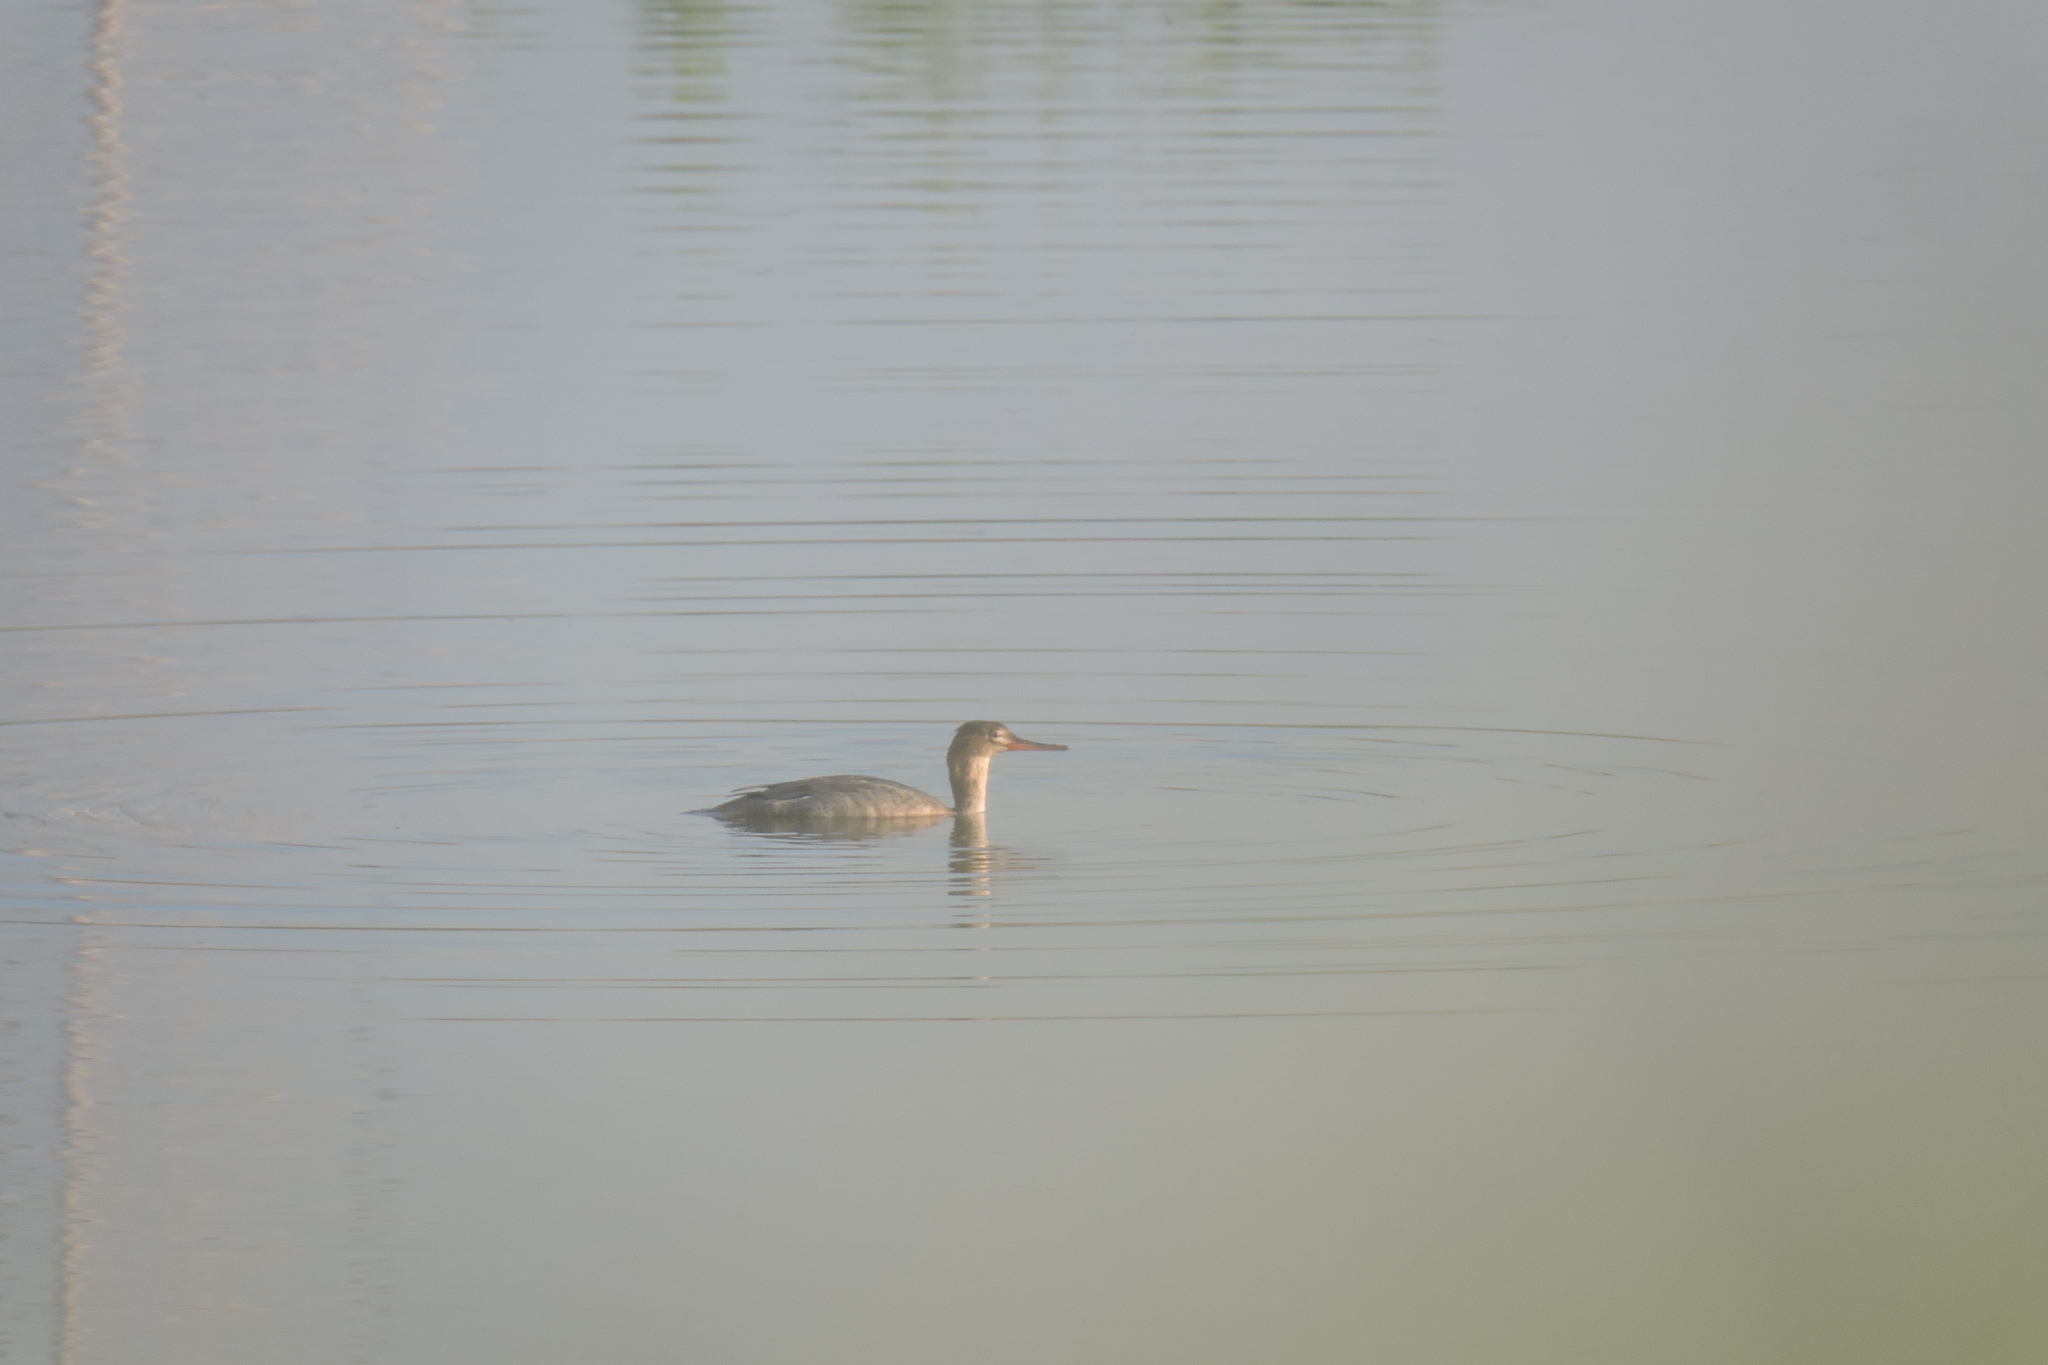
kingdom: Animalia
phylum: Chordata
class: Aves
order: Anseriformes
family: Anatidae
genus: Mergus
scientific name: Mergus serrator
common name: Red-breasted merganser
